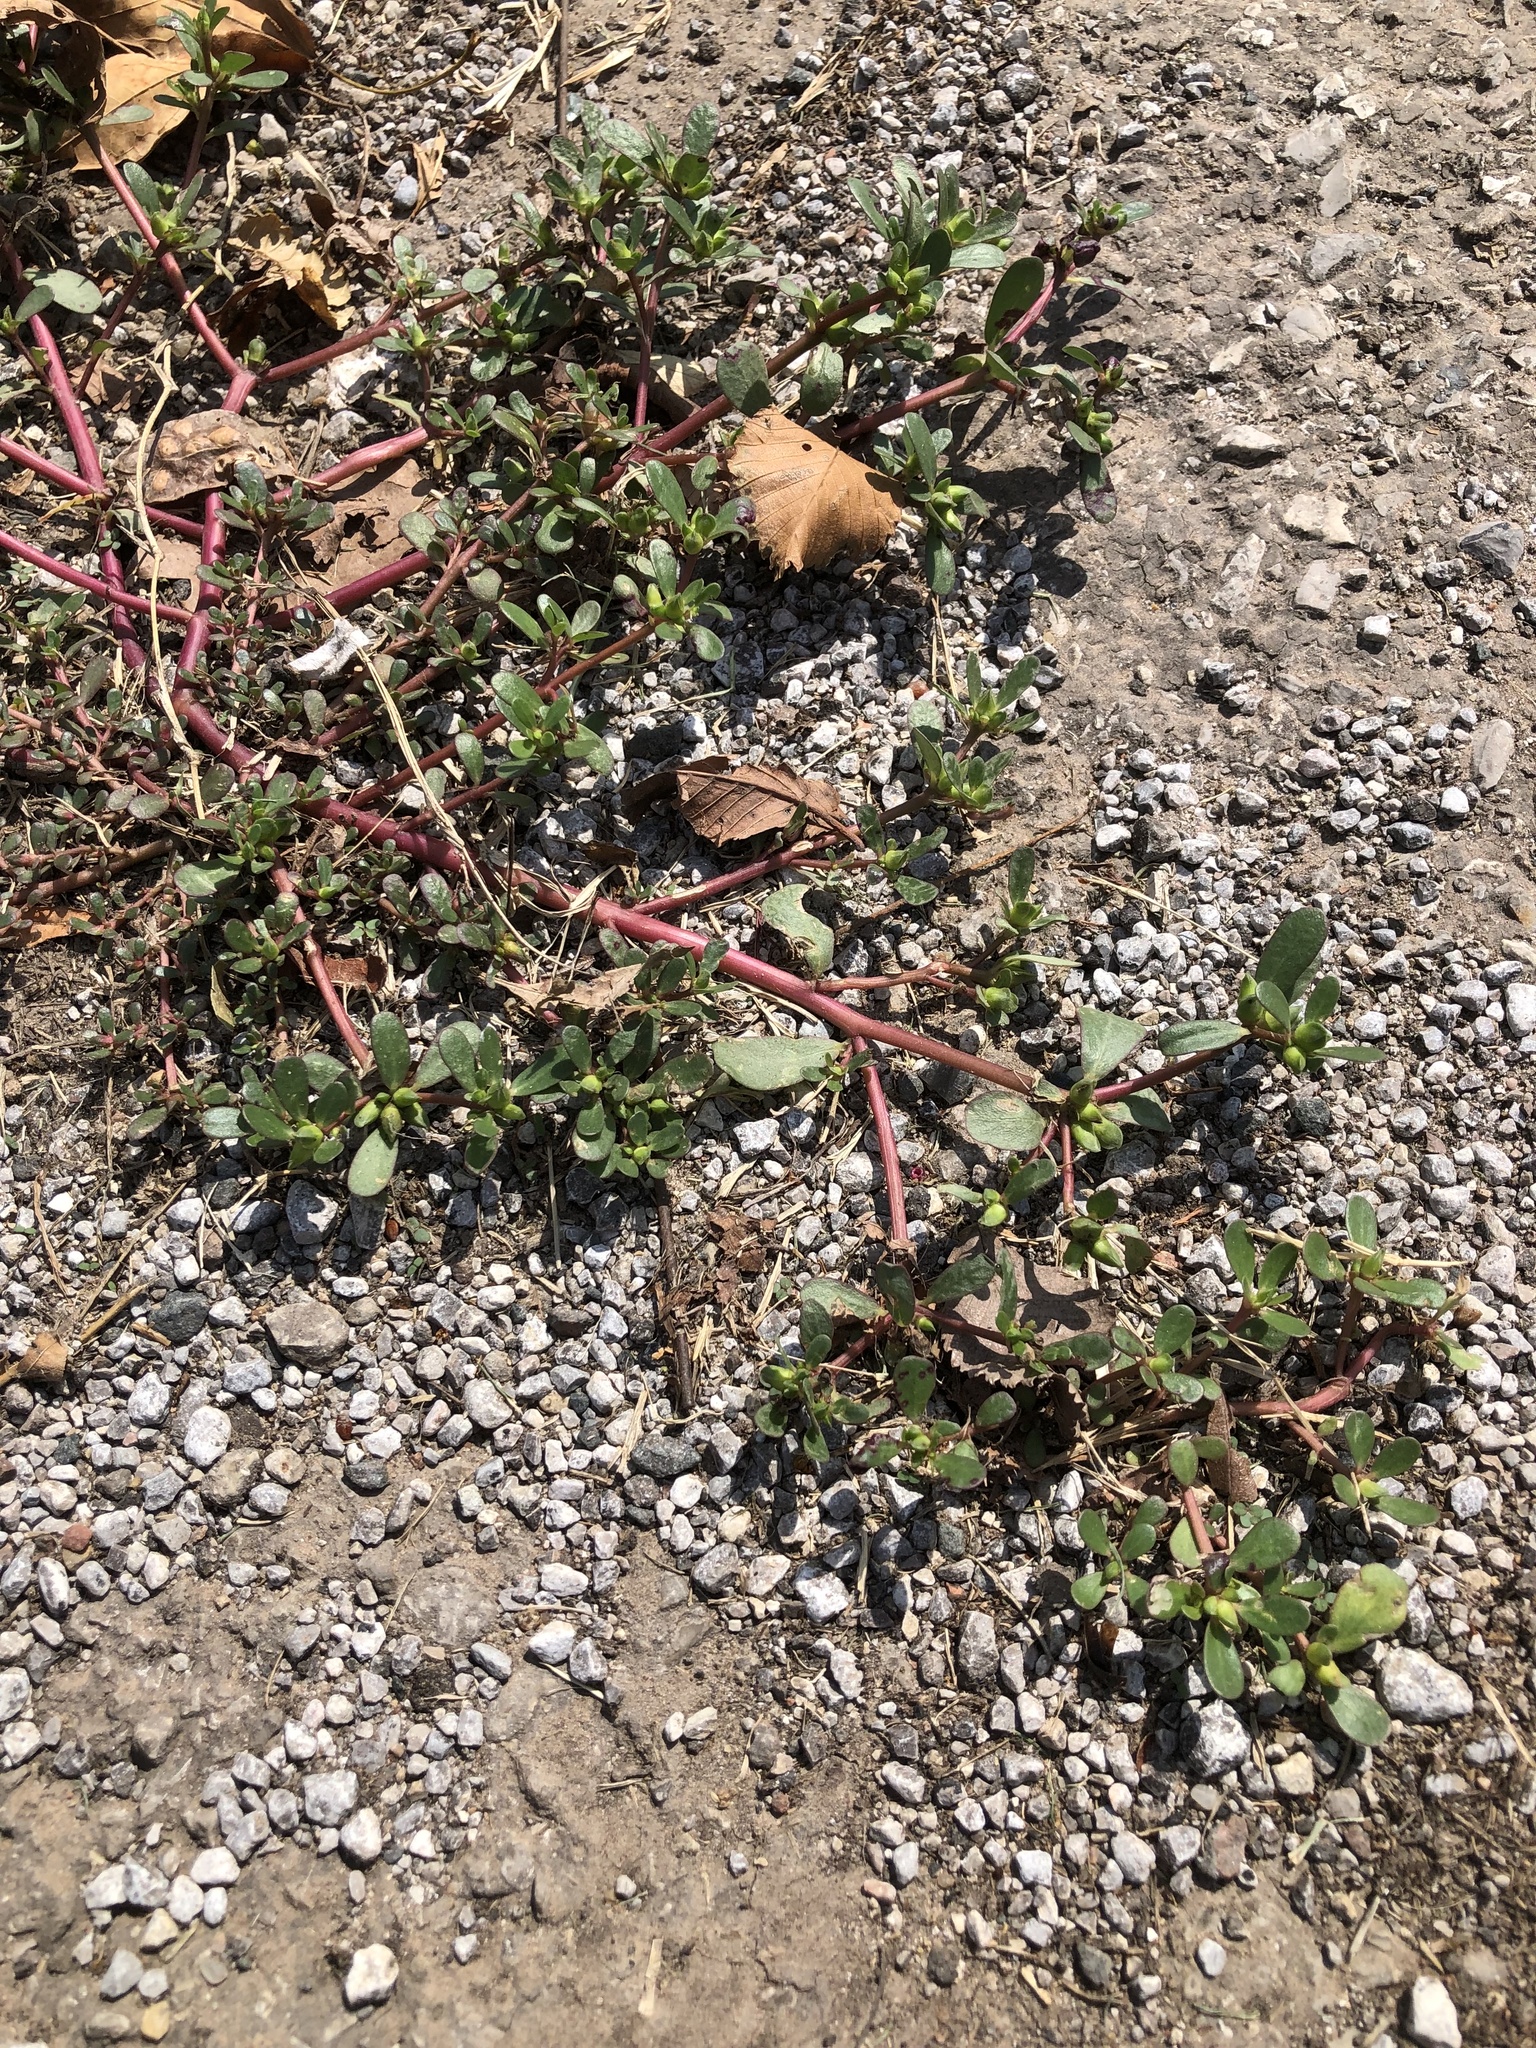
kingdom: Plantae
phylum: Tracheophyta
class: Magnoliopsida
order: Caryophyllales
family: Portulacaceae
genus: Portulaca
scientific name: Portulaca oleracea
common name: Common purslane
